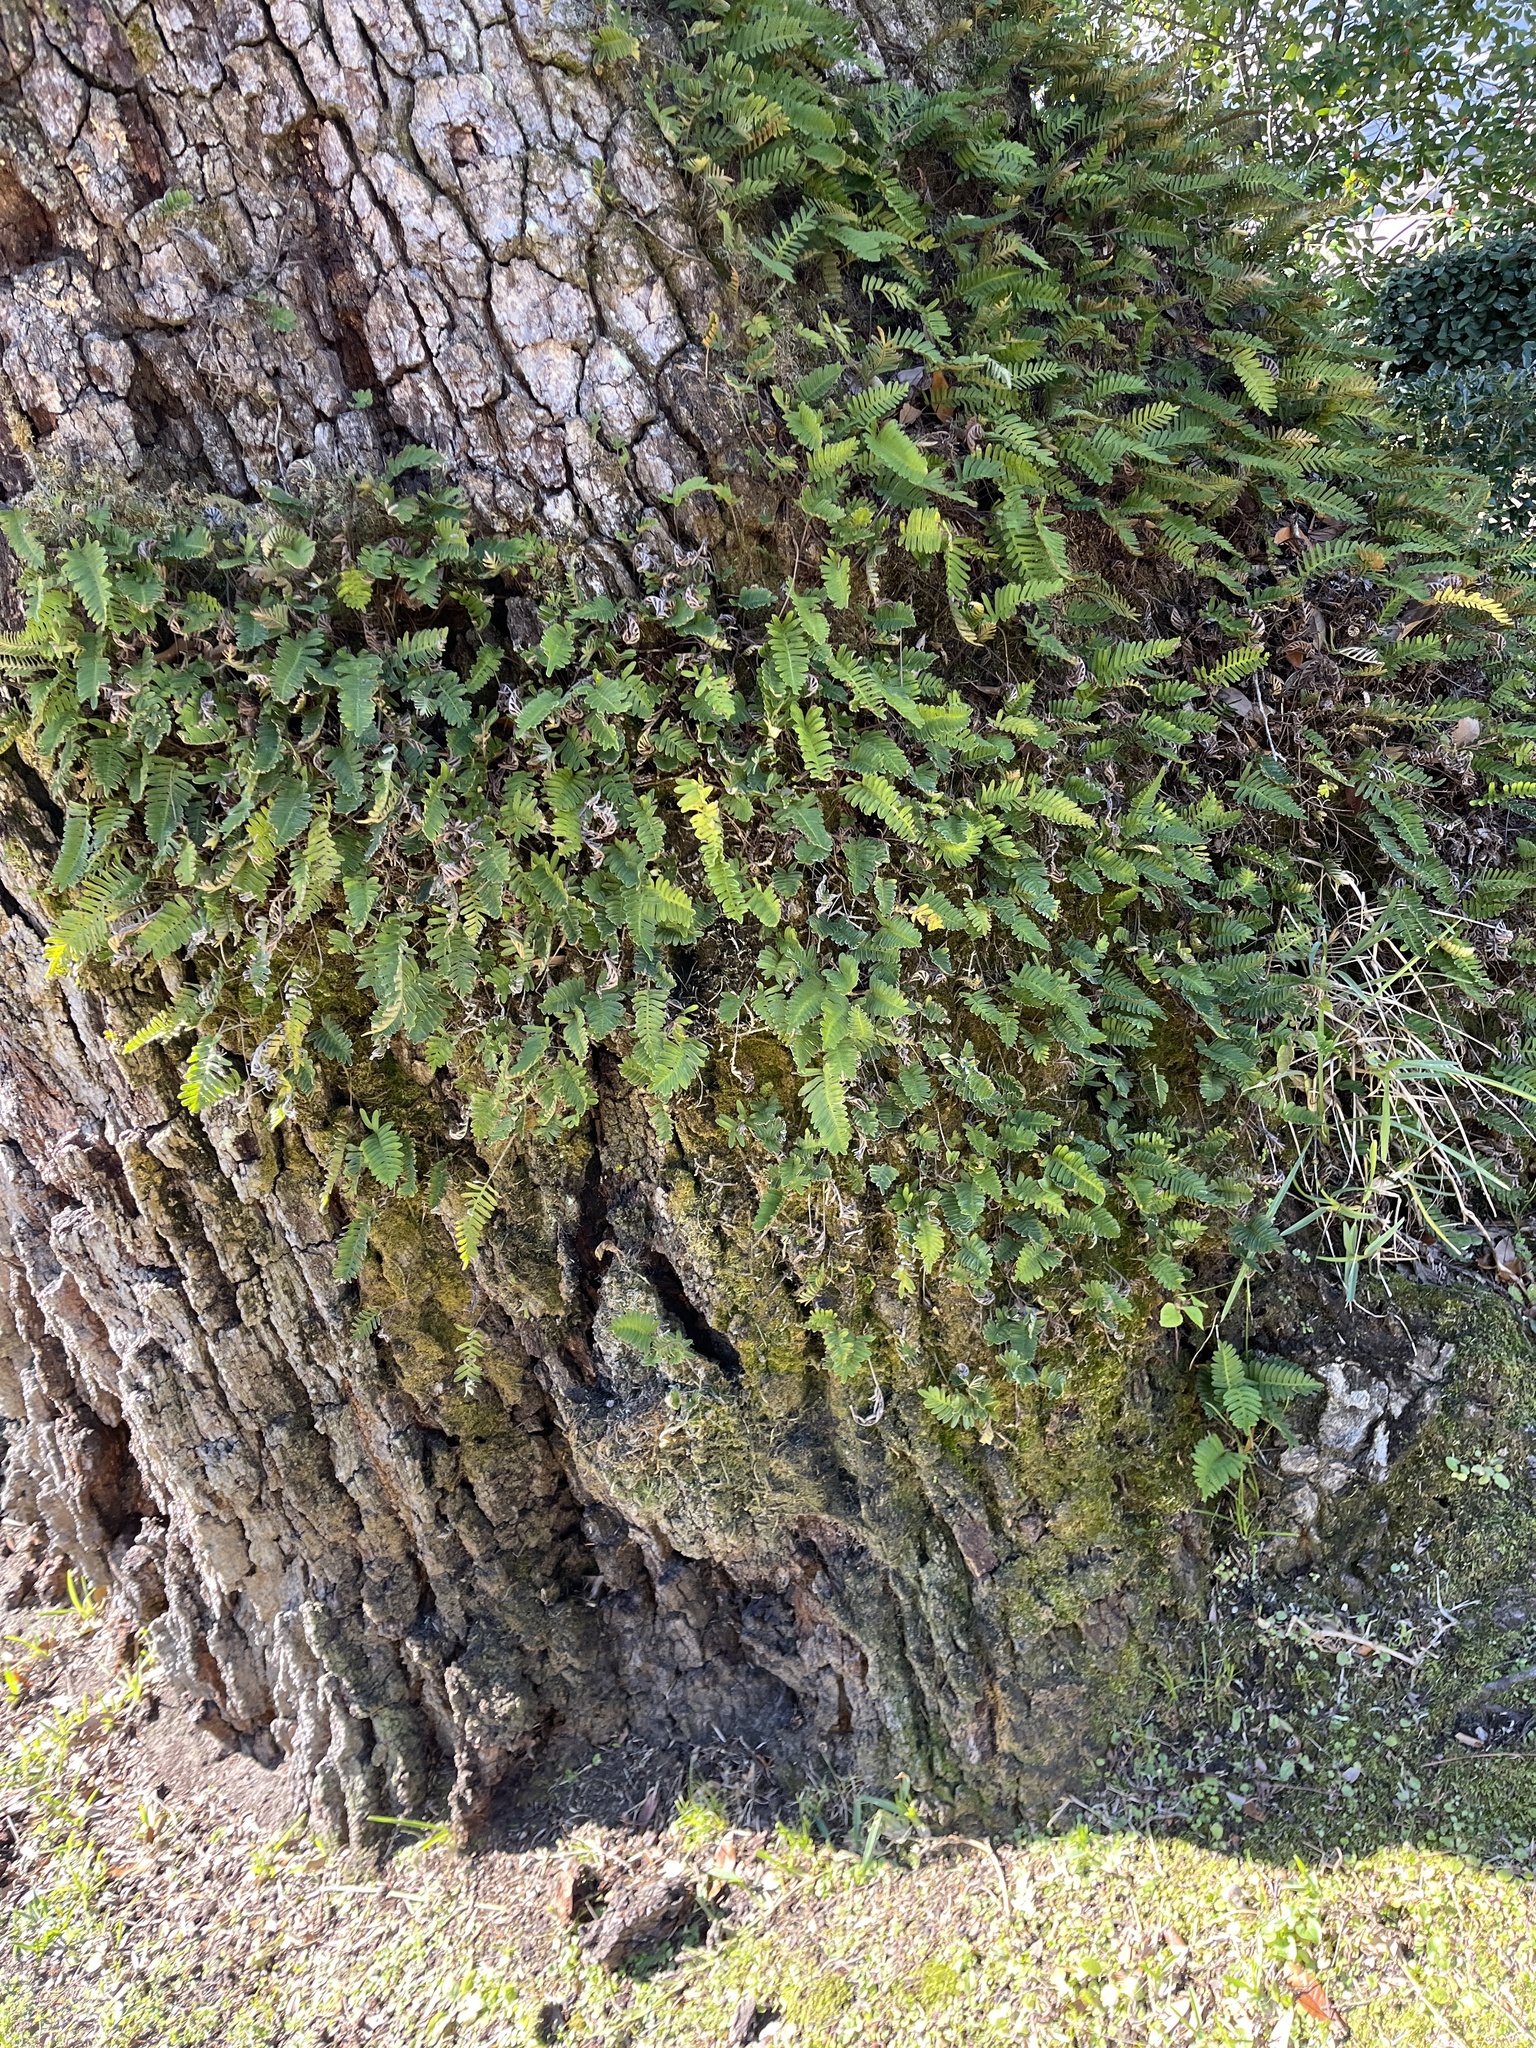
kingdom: Plantae
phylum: Tracheophyta
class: Polypodiopsida
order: Polypodiales
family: Polypodiaceae
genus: Pleopeltis
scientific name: Pleopeltis michauxiana
